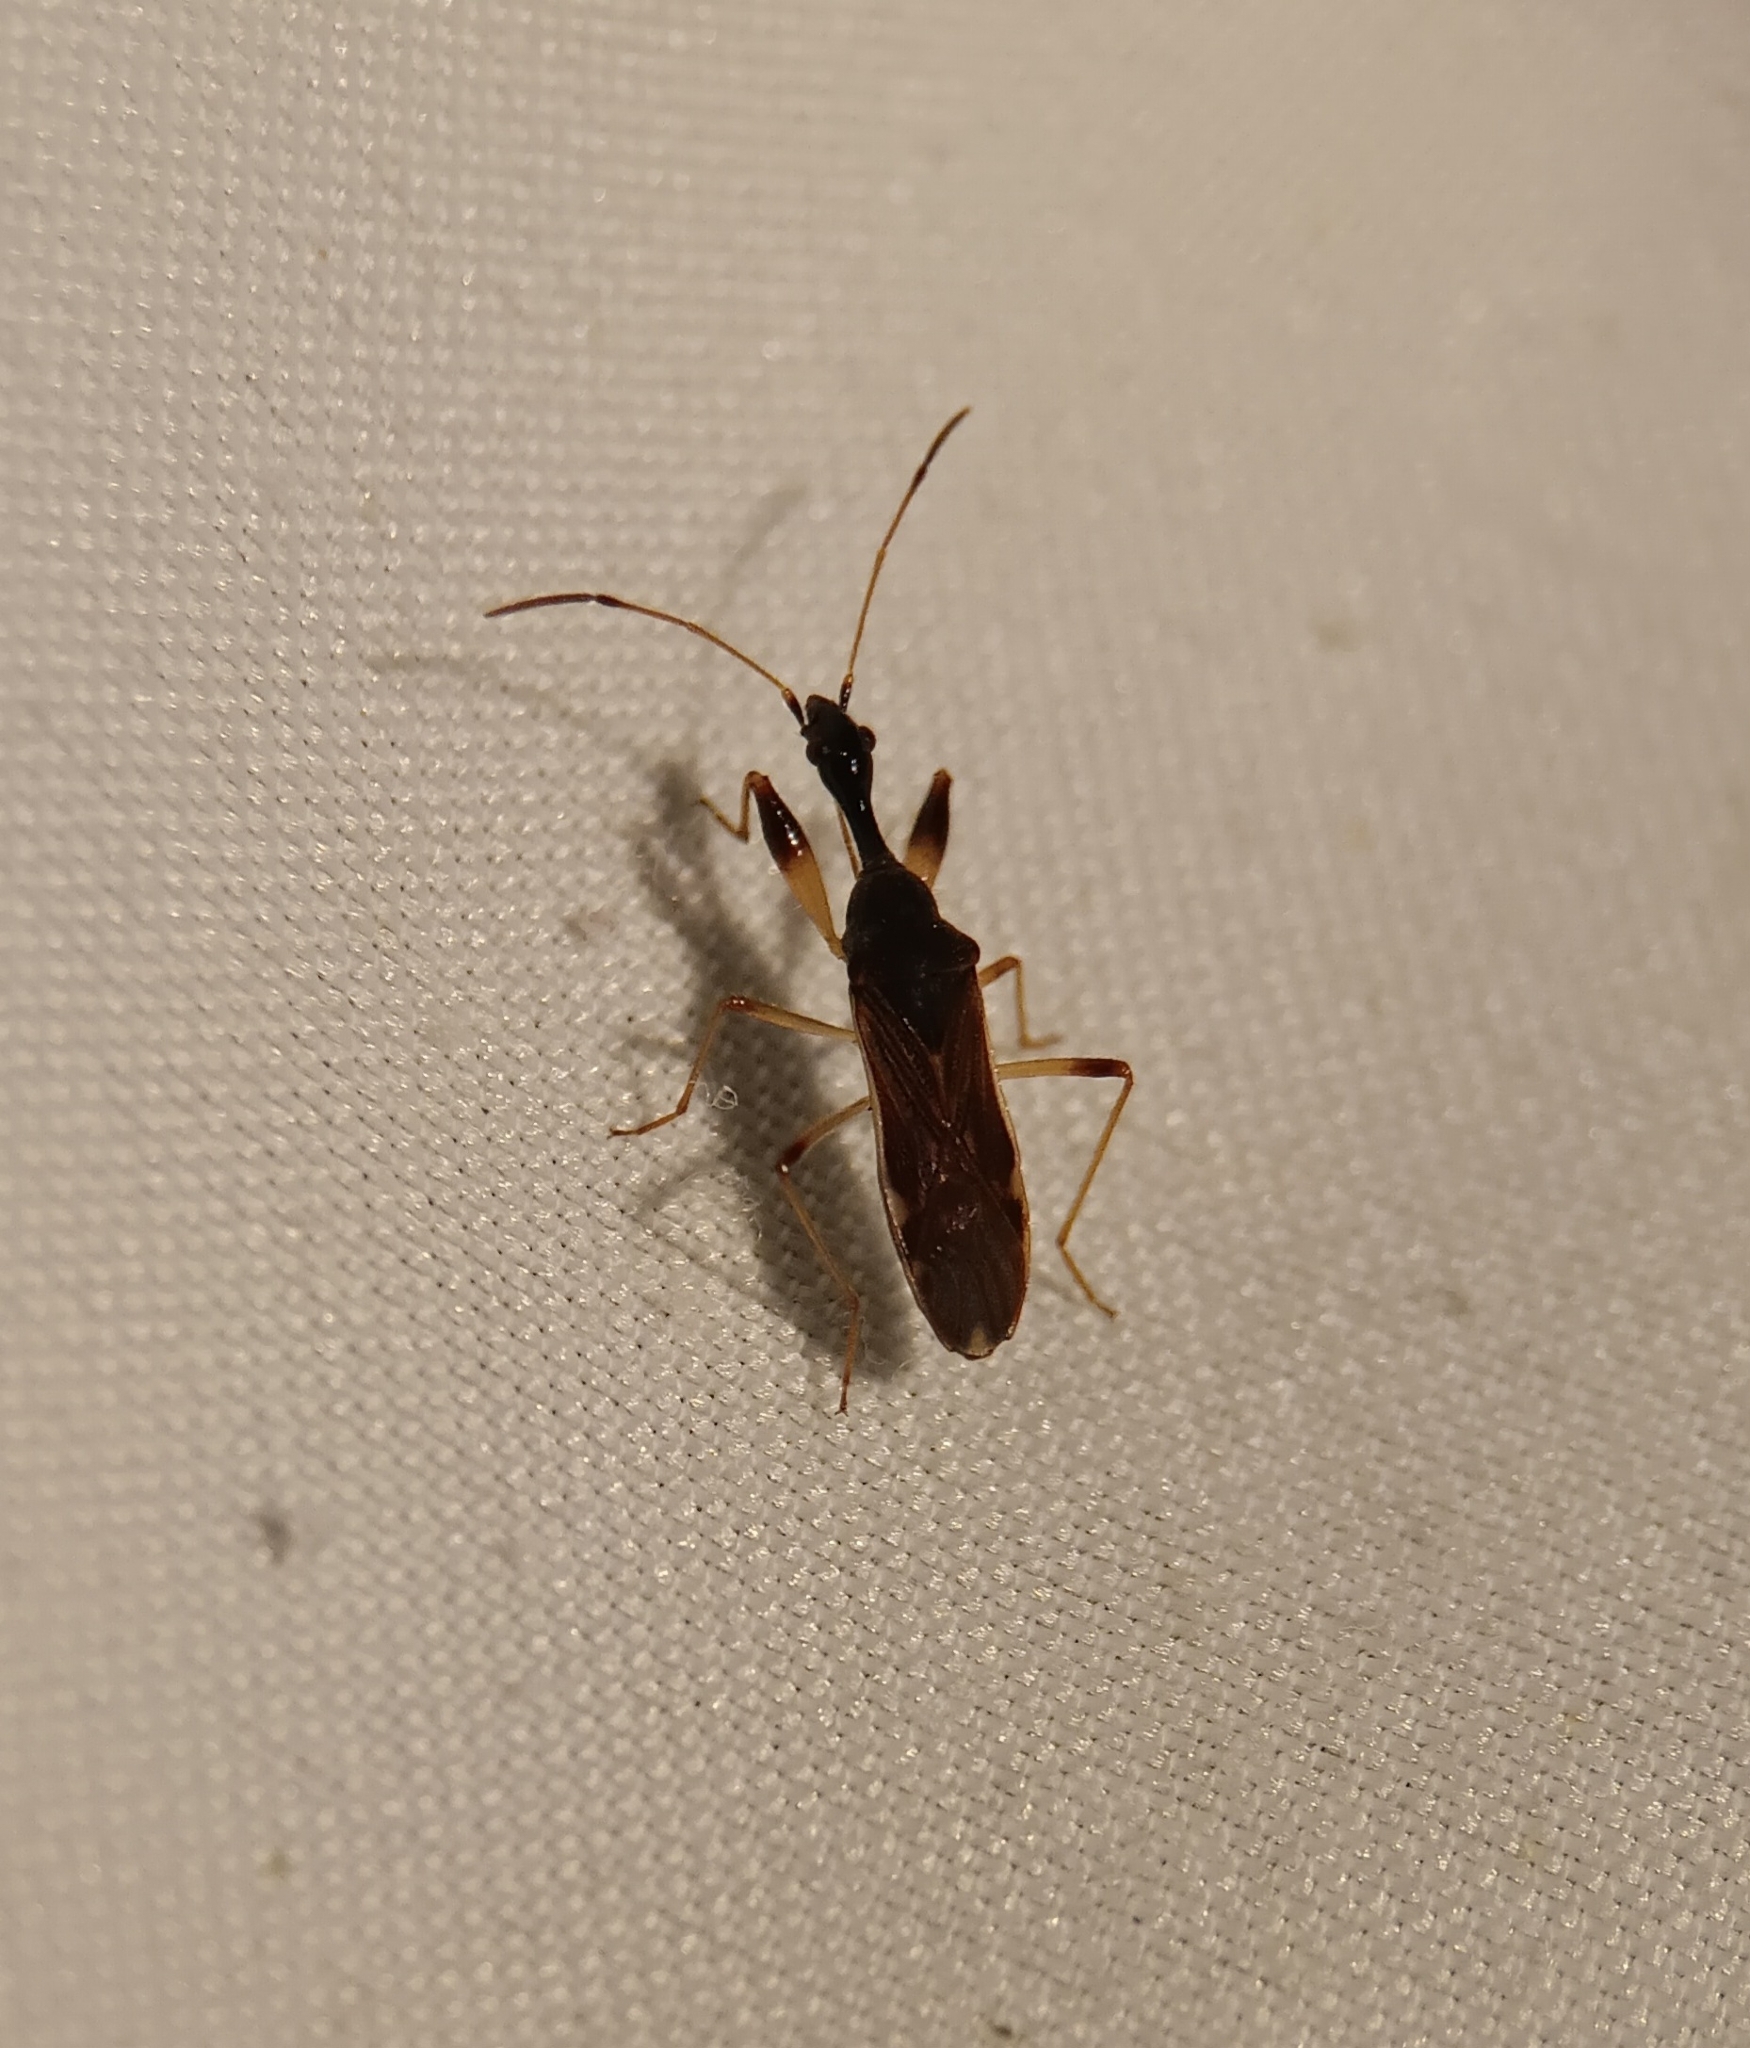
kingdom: Animalia
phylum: Arthropoda
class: Insecta
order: Hemiptera
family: Rhyparochromidae
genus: Myodocha
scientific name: Myodocha serripes
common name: Long-necked seed bug
